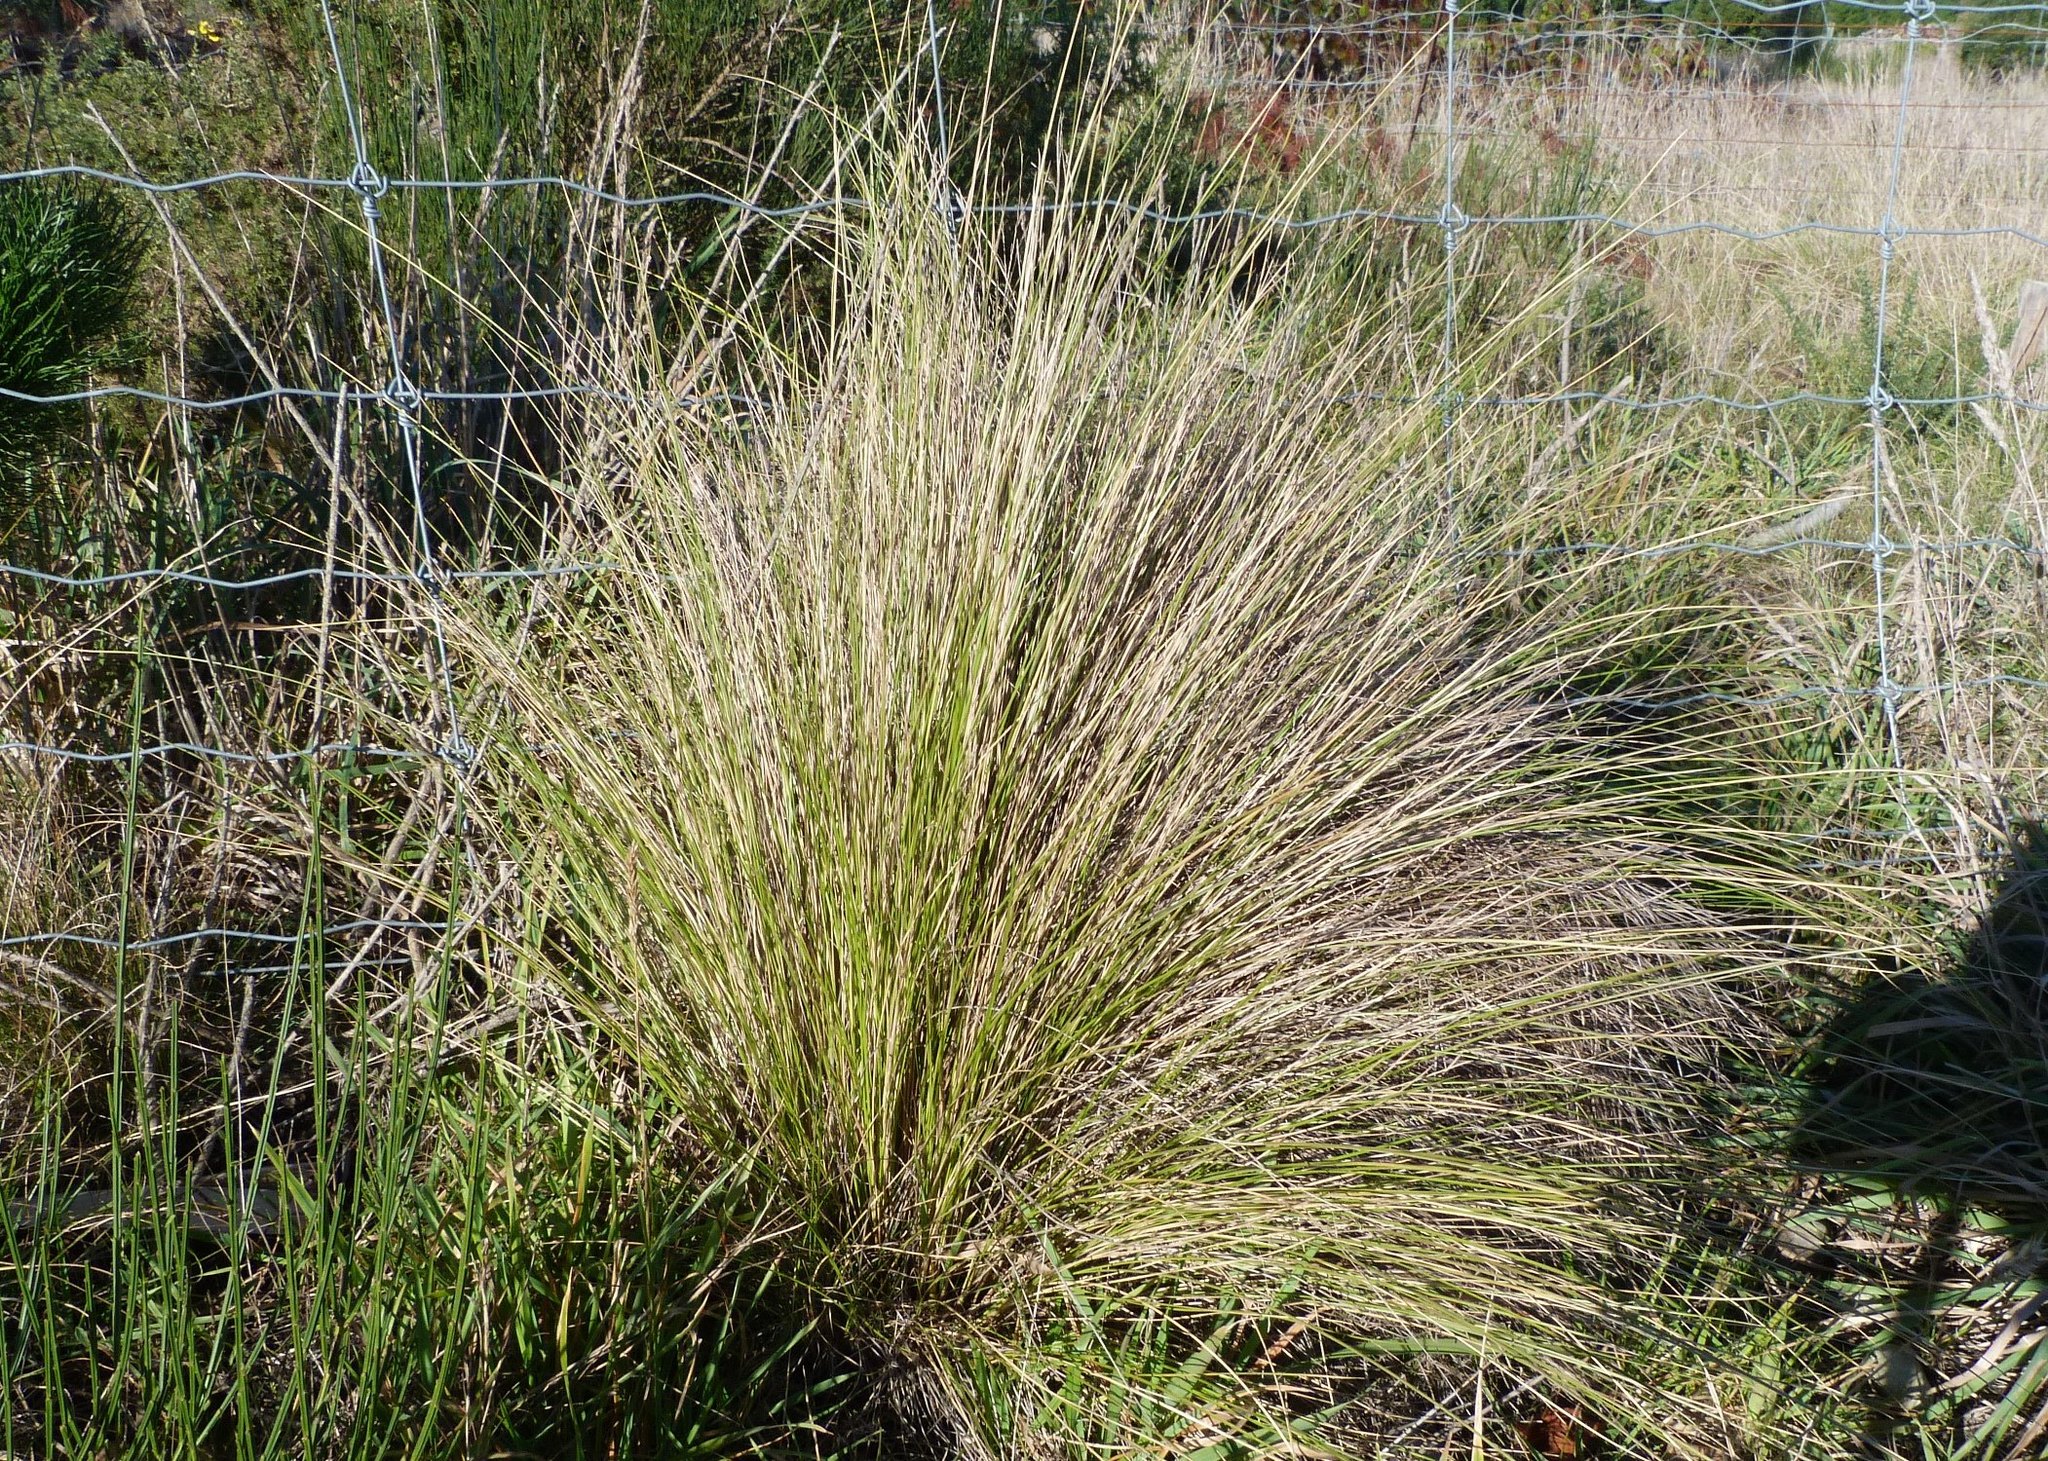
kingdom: Plantae
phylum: Tracheophyta
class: Liliopsida
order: Poales
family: Poaceae
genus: Poa
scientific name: Poa cita
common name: Silver tussock
